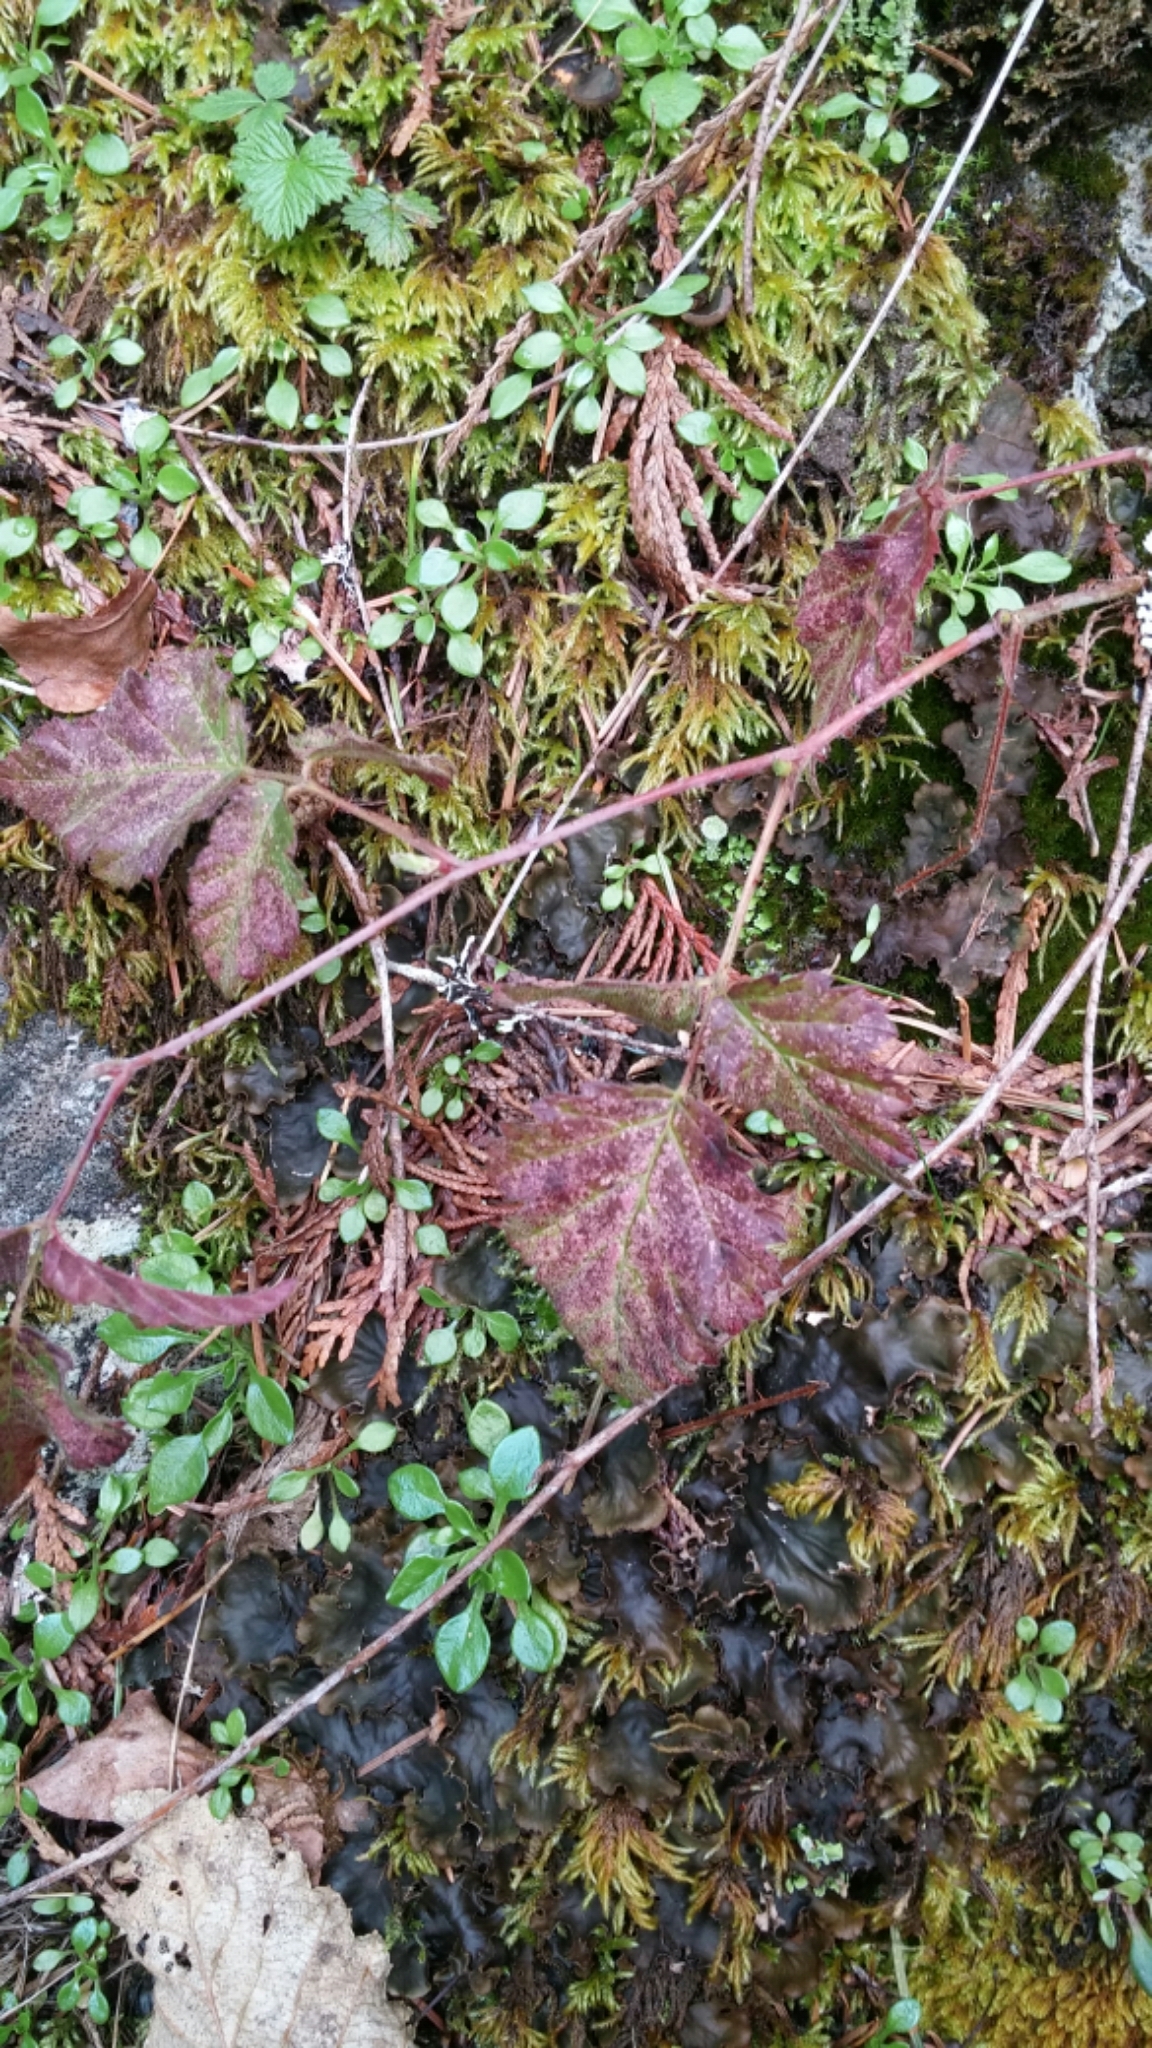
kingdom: Plantae
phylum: Tracheophyta
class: Magnoliopsida
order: Rosales
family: Rosaceae
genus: Rubus
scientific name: Rubus ursinus
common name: Pacific blackberry
